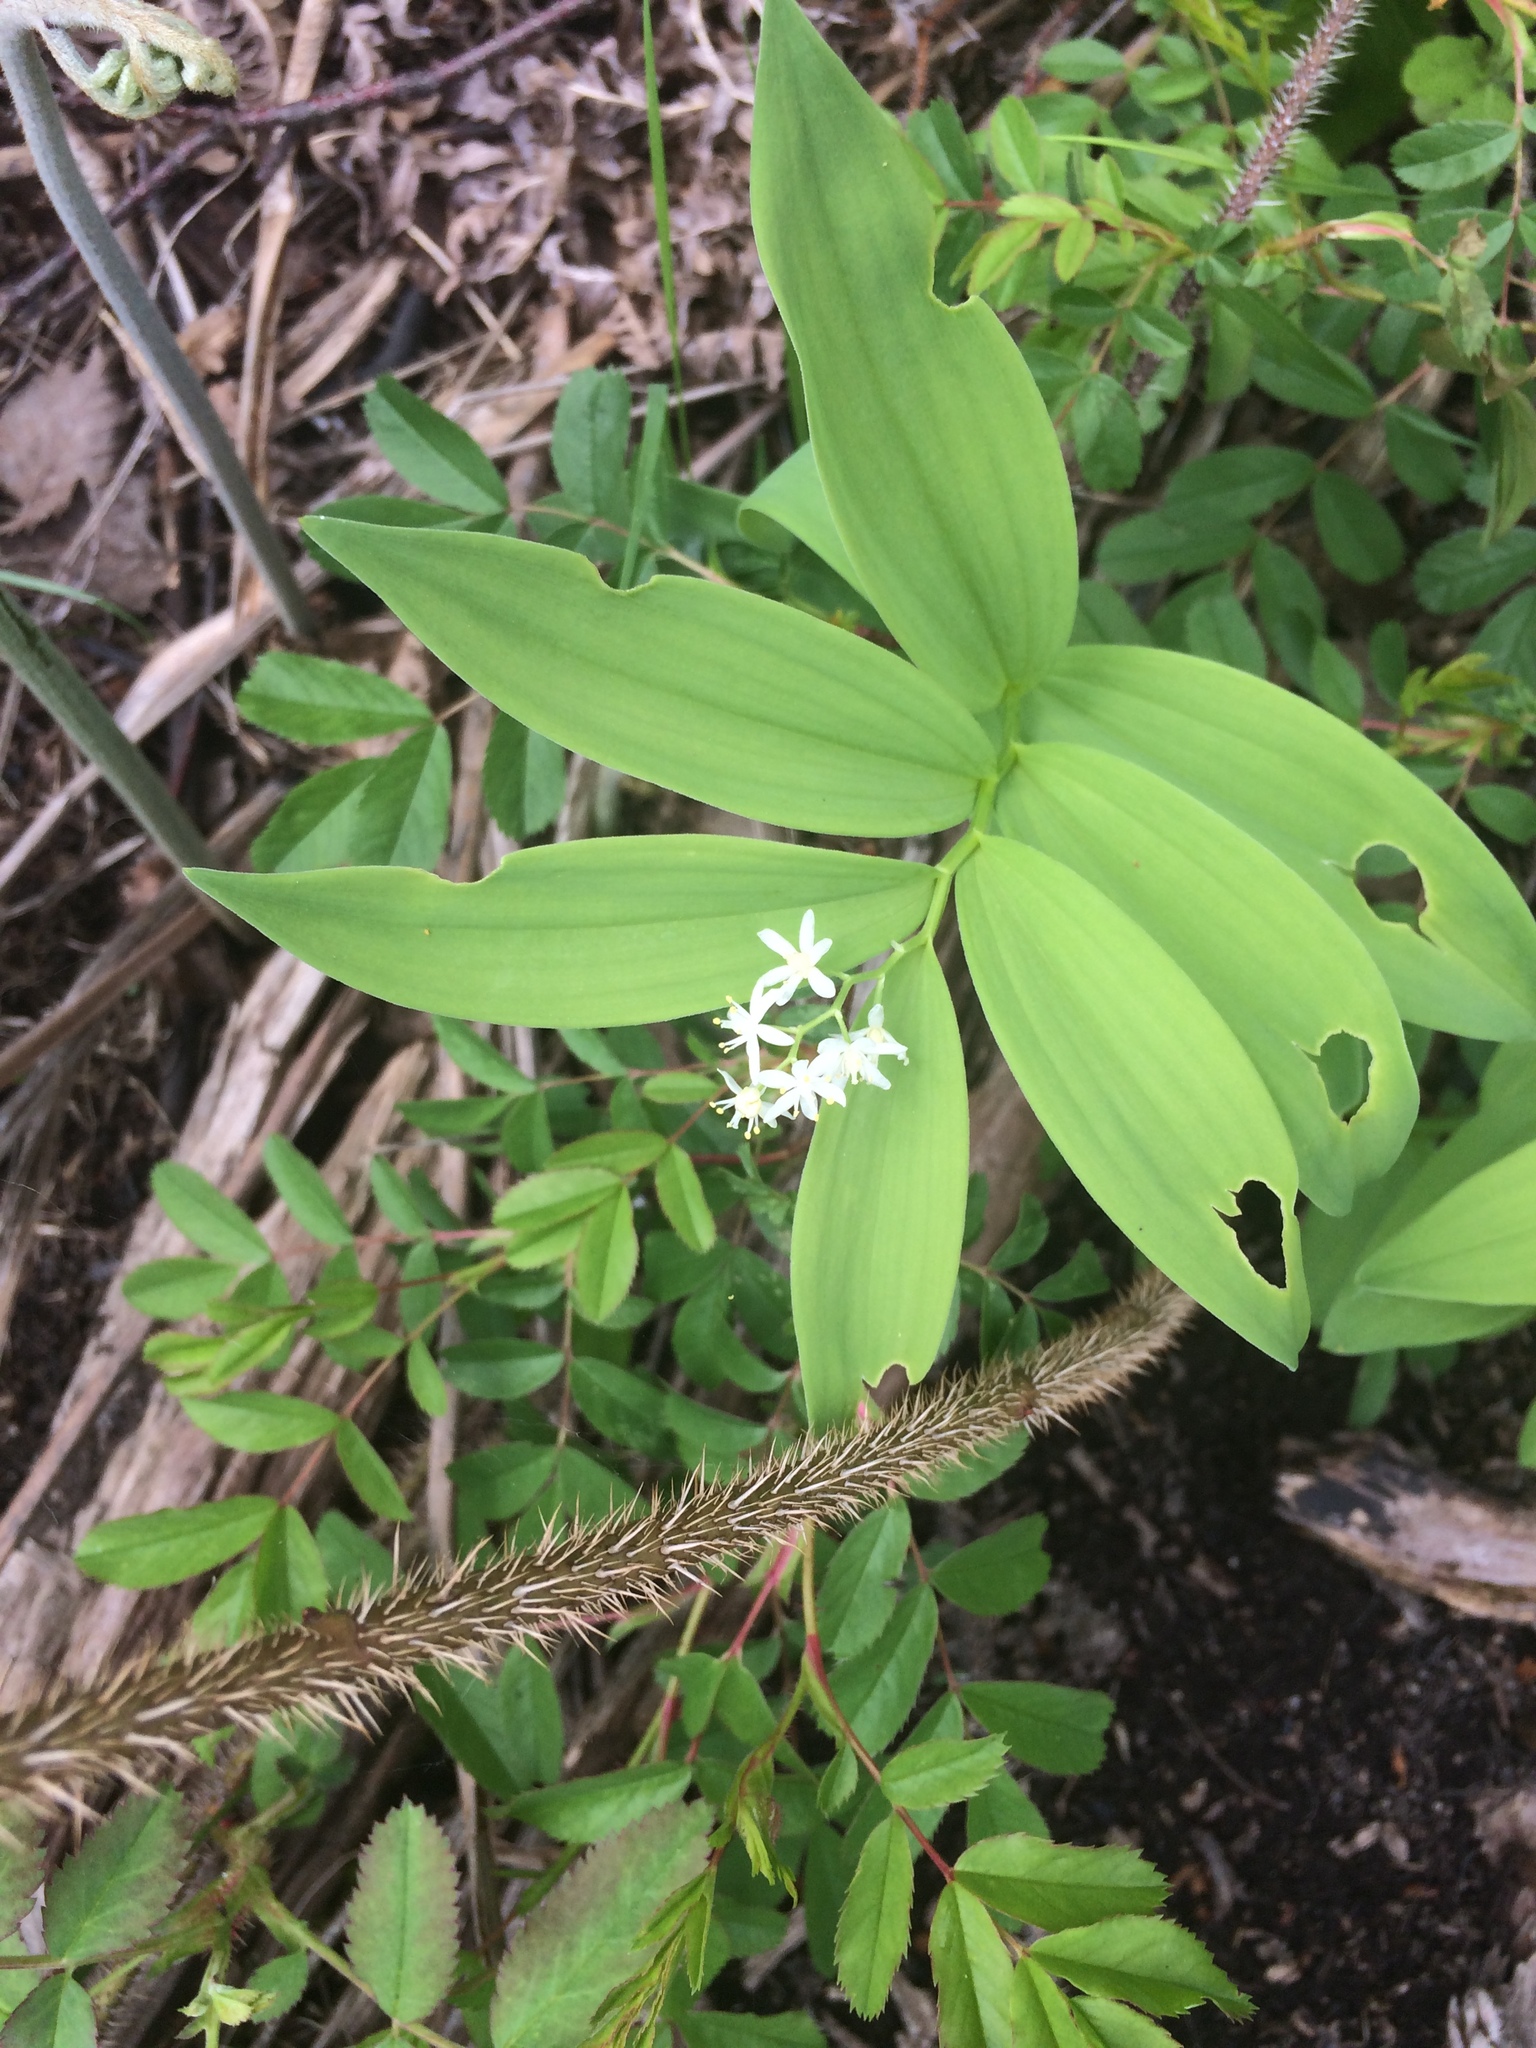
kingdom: Plantae
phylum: Tracheophyta
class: Liliopsida
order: Asparagales
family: Asparagaceae
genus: Maianthemum
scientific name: Maianthemum stellatum
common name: Little false solomon's seal
